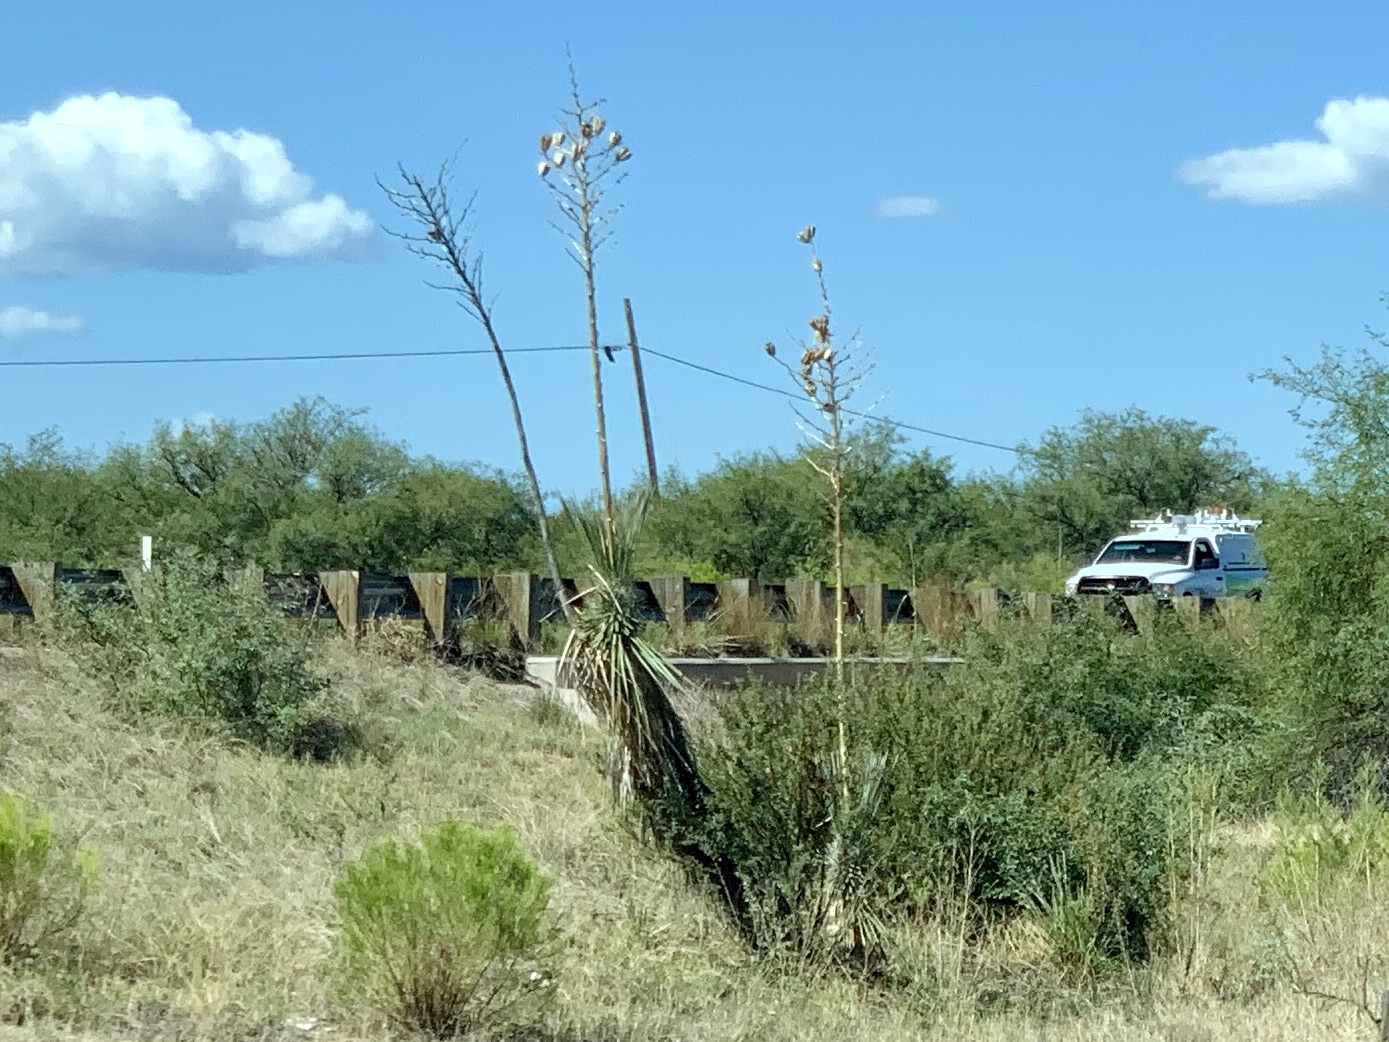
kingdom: Plantae
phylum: Tracheophyta
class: Liliopsida
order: Asparagales
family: Asparagaceae
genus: Yucca
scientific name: Yucca elata
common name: Palmella
